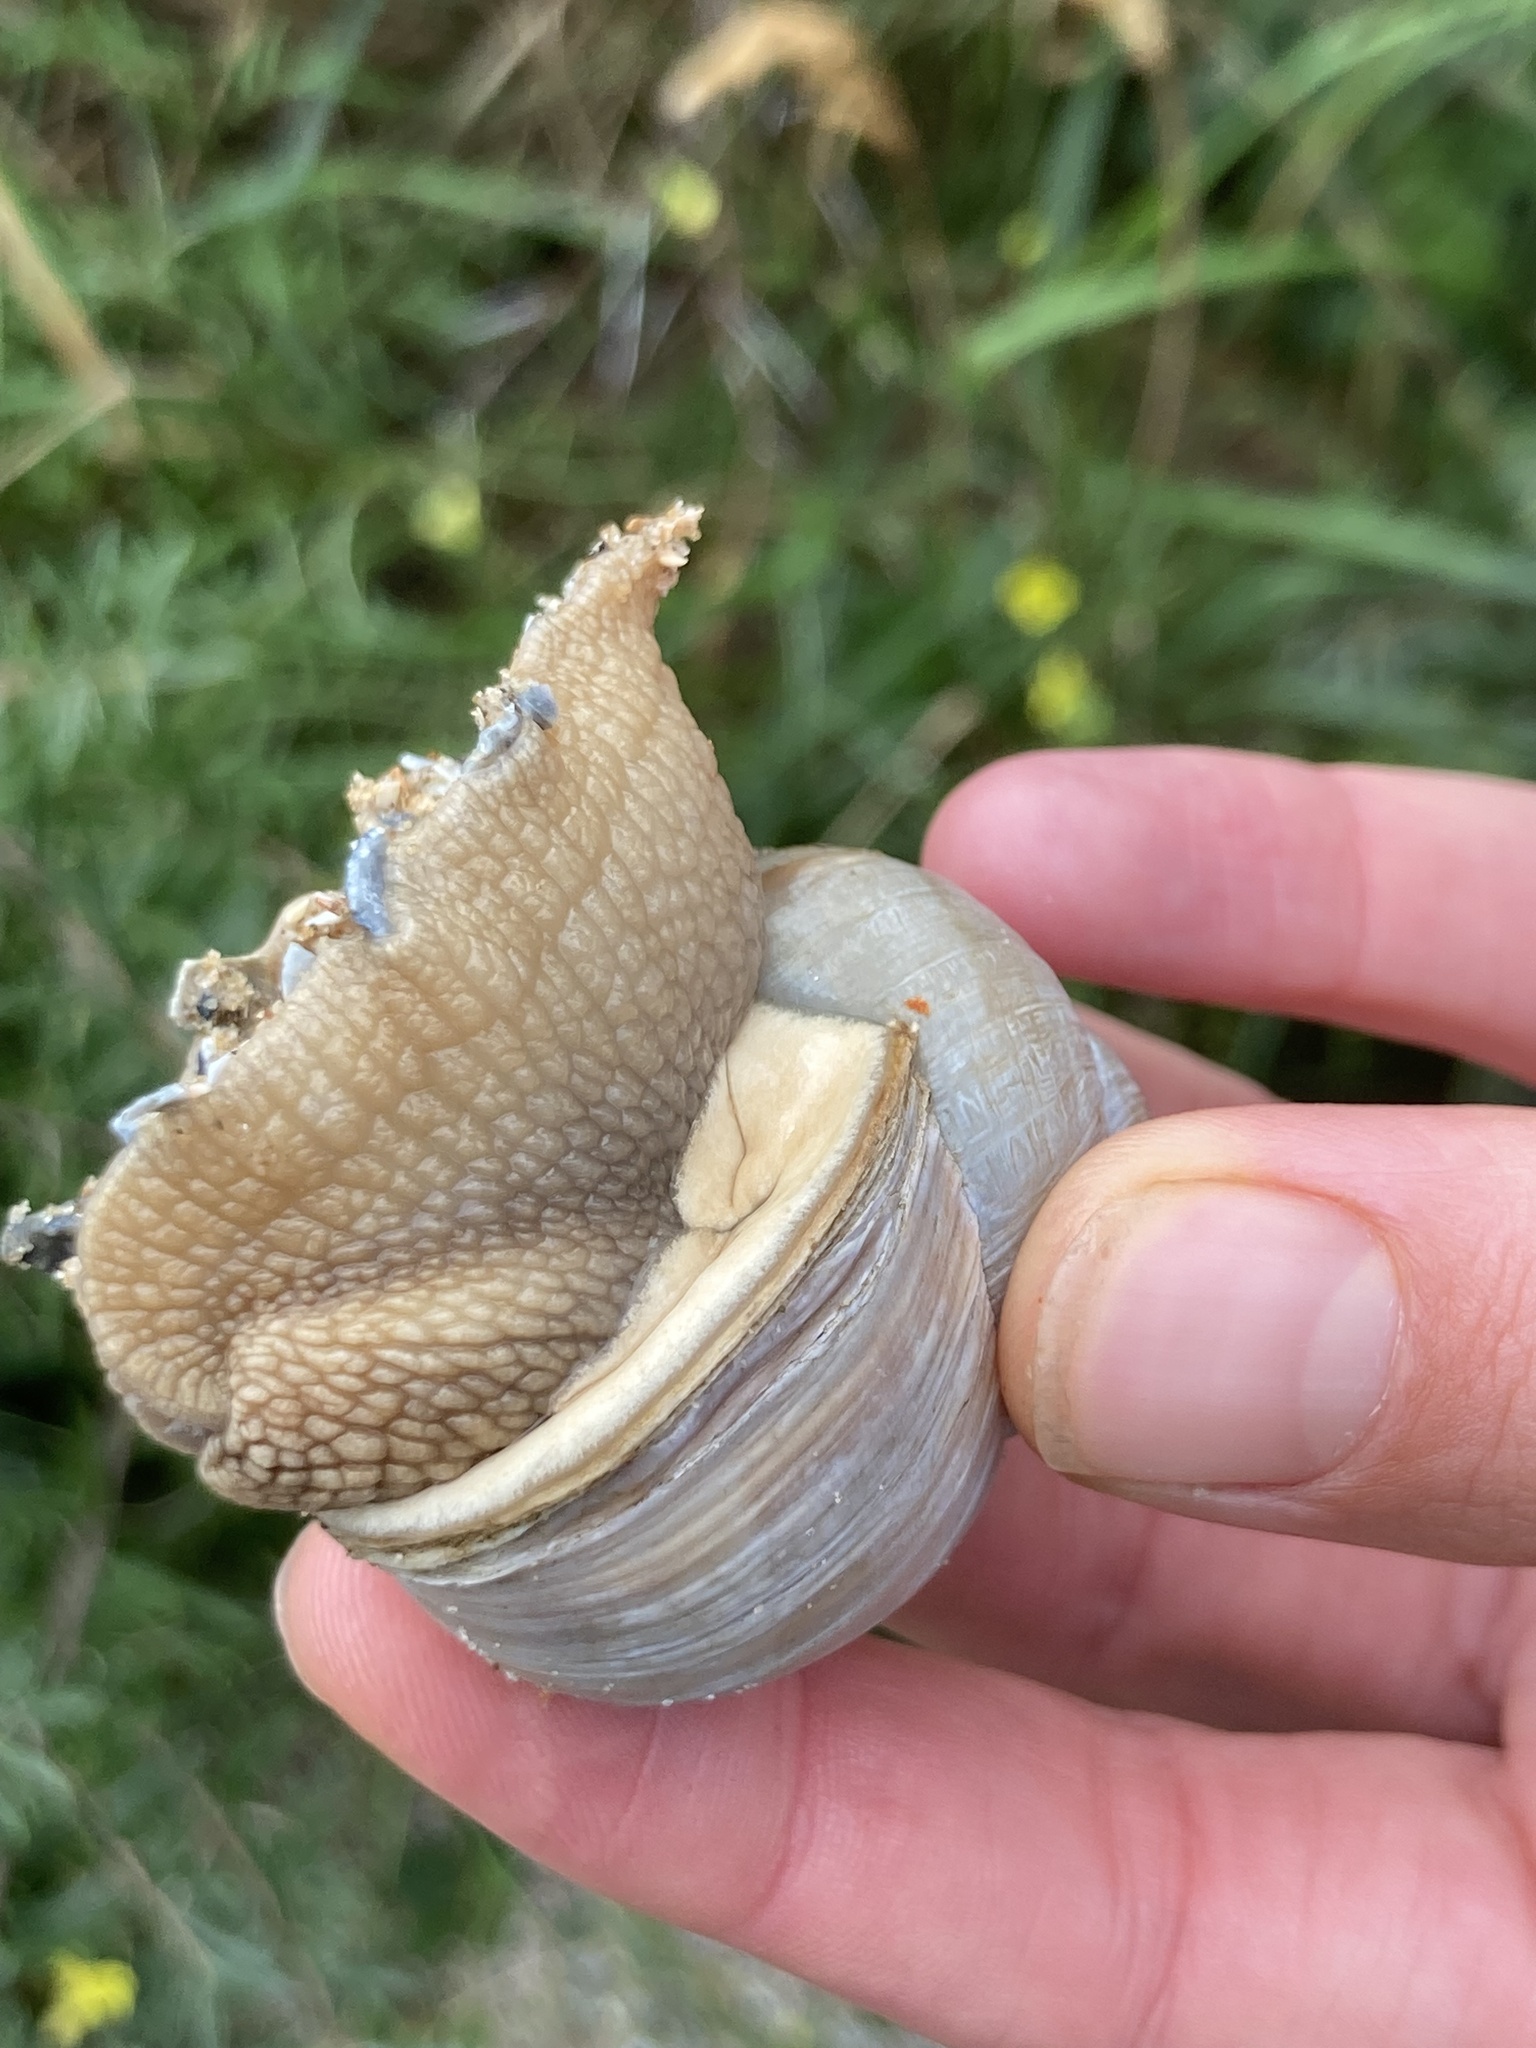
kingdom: Animalia
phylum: Mollusca
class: Gastropoda
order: Stylommatophora
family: Helicidae
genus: Helix
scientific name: Helix pomatia
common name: Roman snail
